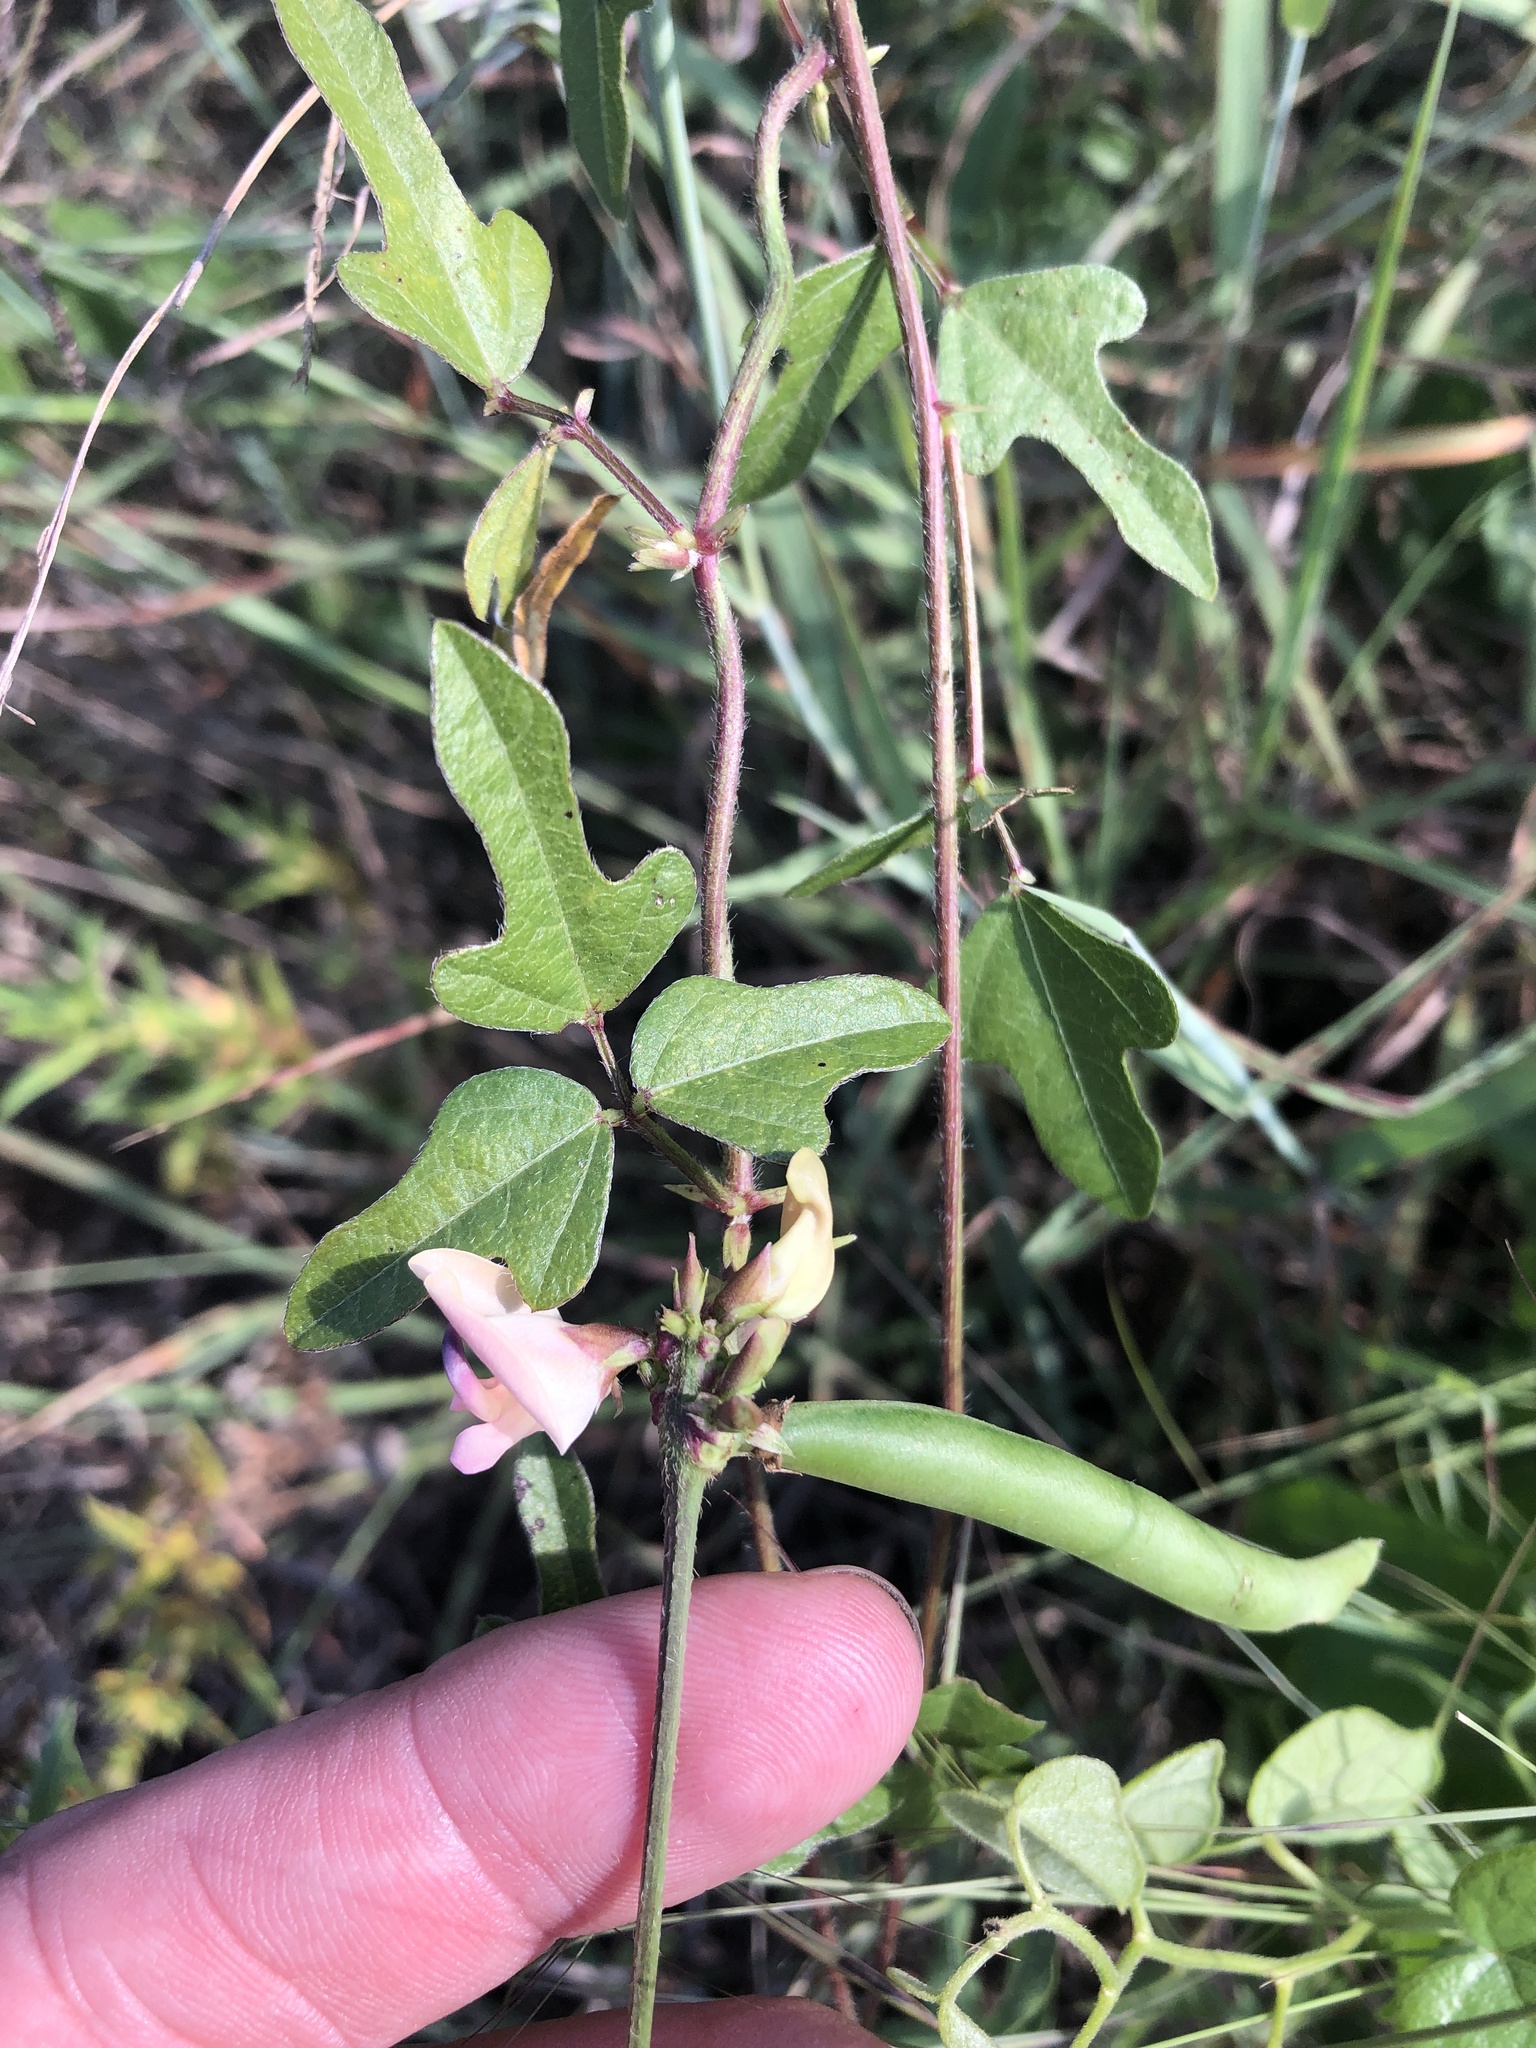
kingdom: Plantae
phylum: Tracheophyta
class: Magnoliopsida
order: Fabales
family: Fabaceae
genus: Strophostyles
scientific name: Strophostyles helvola
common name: Trailing wild bean
